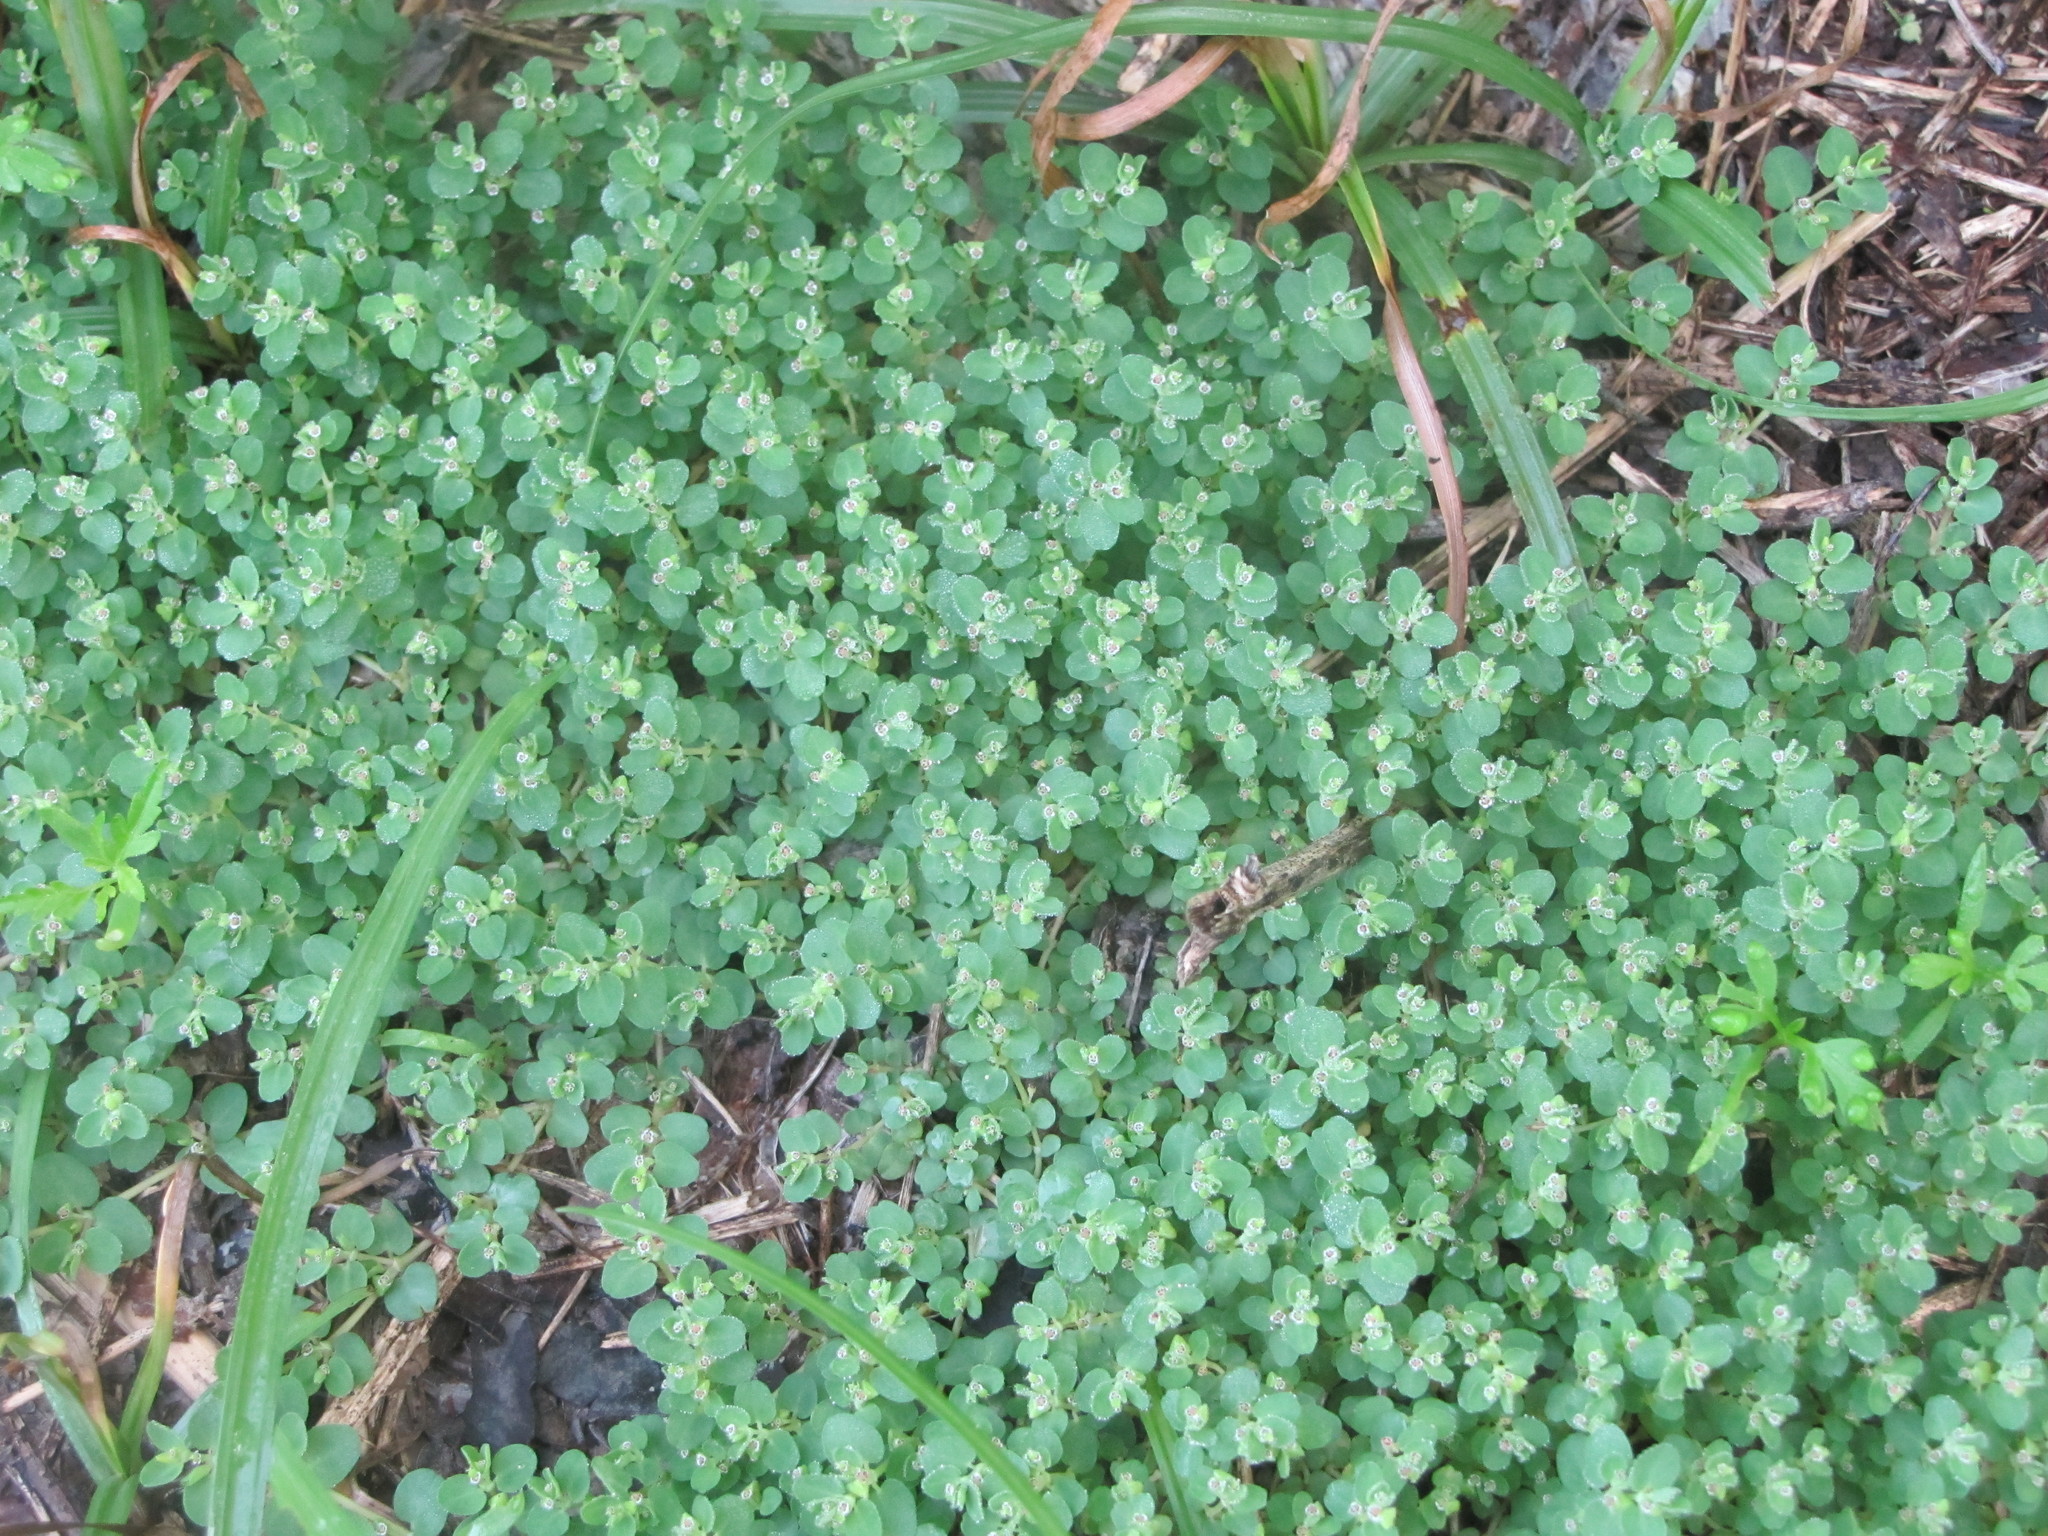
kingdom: Plantae
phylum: Tracheophyta
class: Magnoliopsida
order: Malpighiales
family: Euphorbiaceae
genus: Euphorbia
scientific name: Euphorbia serpens
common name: Matted sandmat
